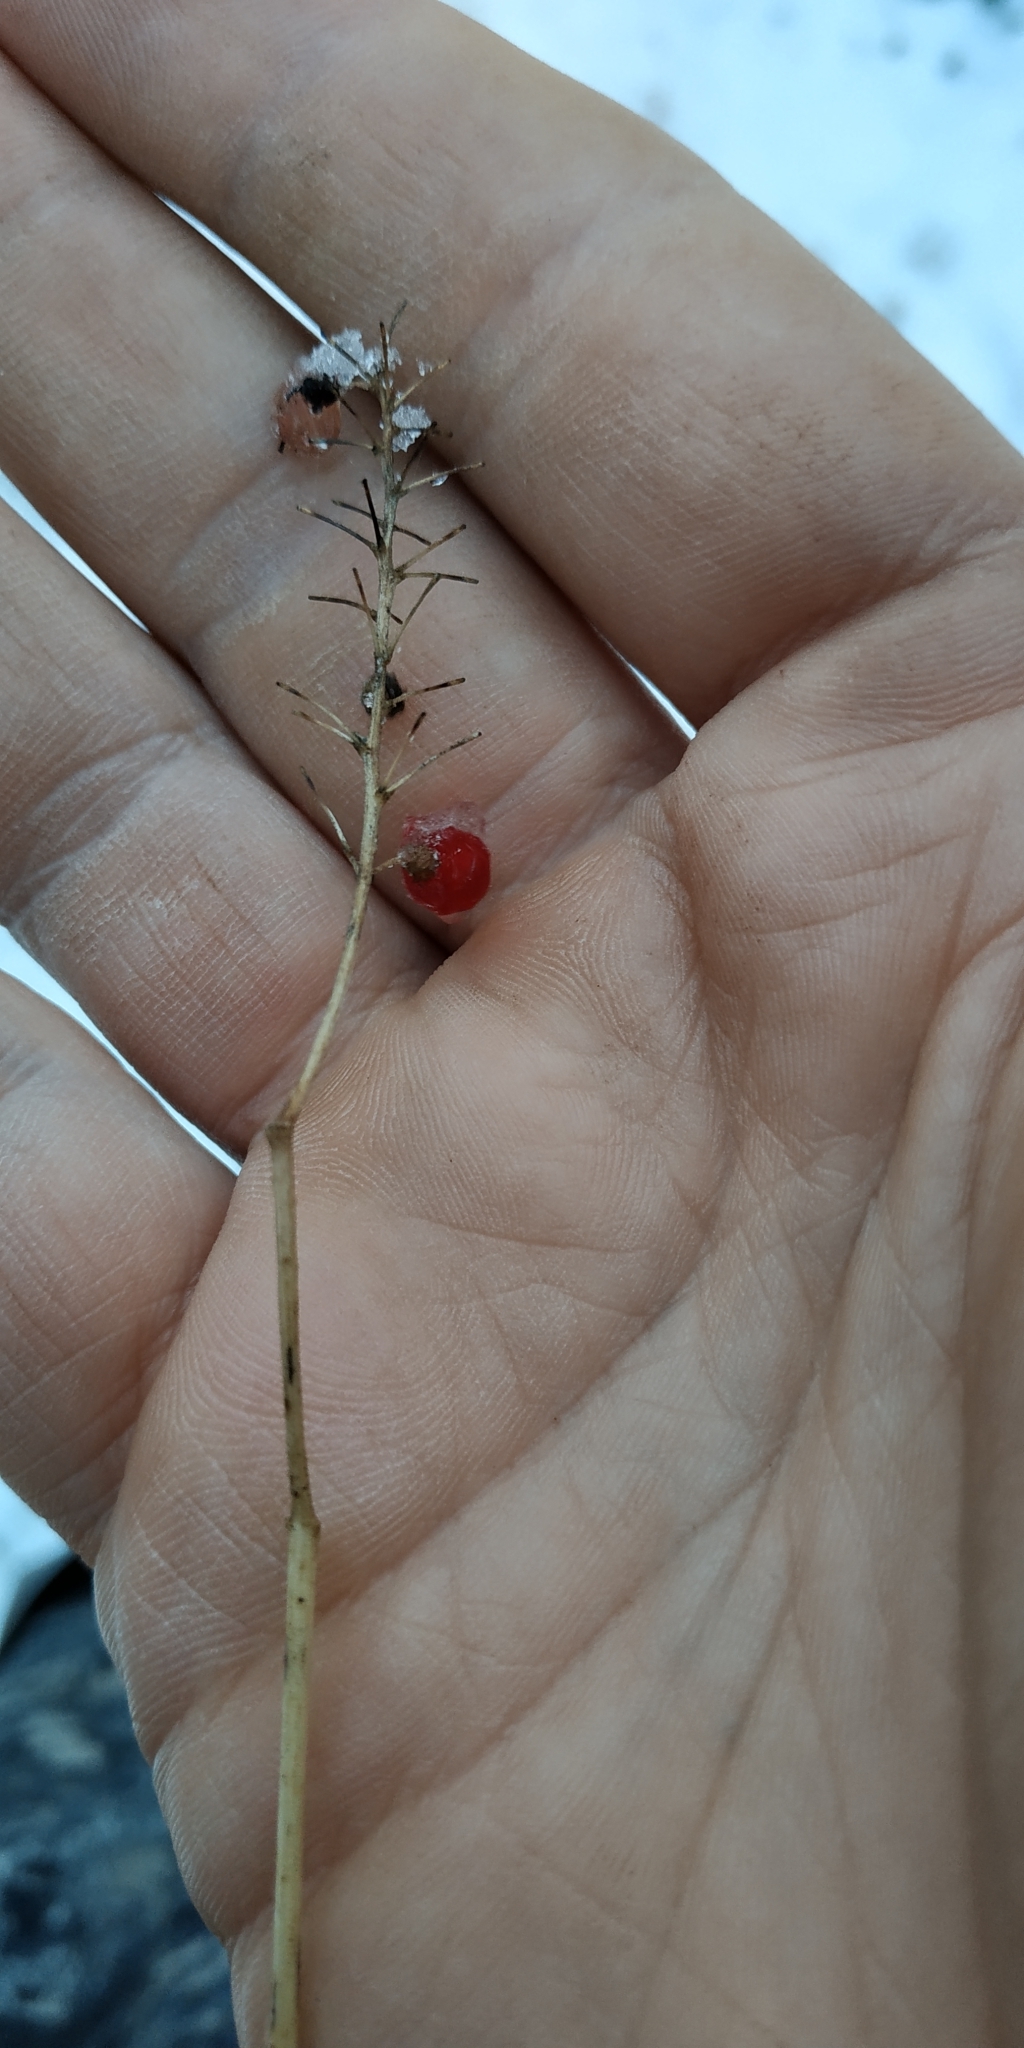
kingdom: Plantae
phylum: Tracheophyta
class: Liliopsida
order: Asparagales
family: Asparagaceae
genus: Maianthemum
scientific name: Maianthemum bifolium
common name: May lily
